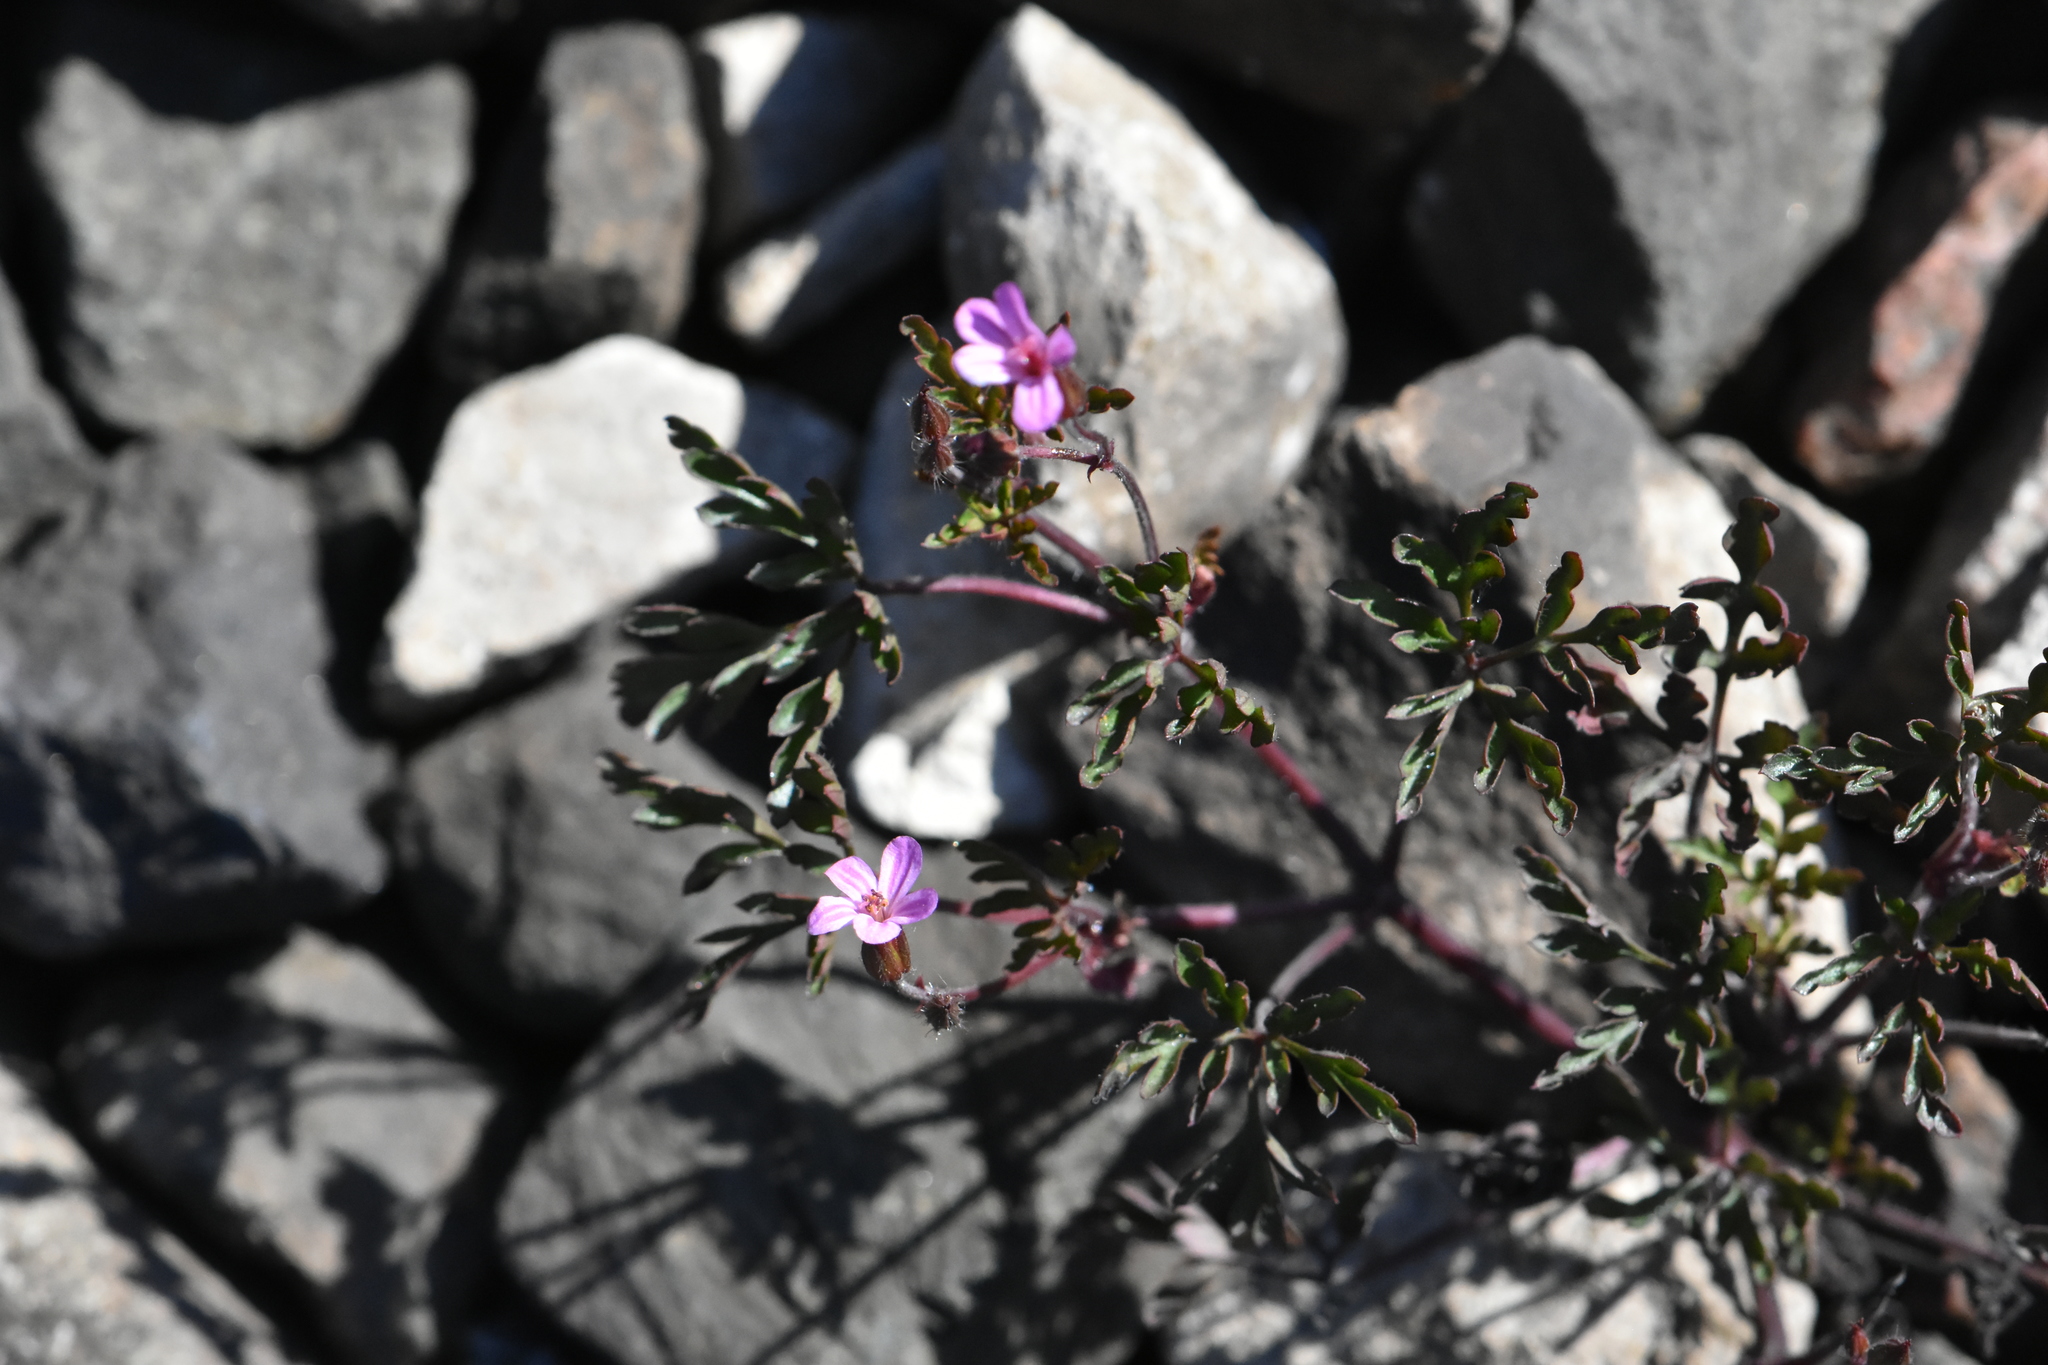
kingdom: Plantae
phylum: Tracheophyta
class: Magnoliopsida
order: Geraniales
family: Geraniaceae
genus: Geranium
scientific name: Geranium robertianum
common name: Herb-robert
